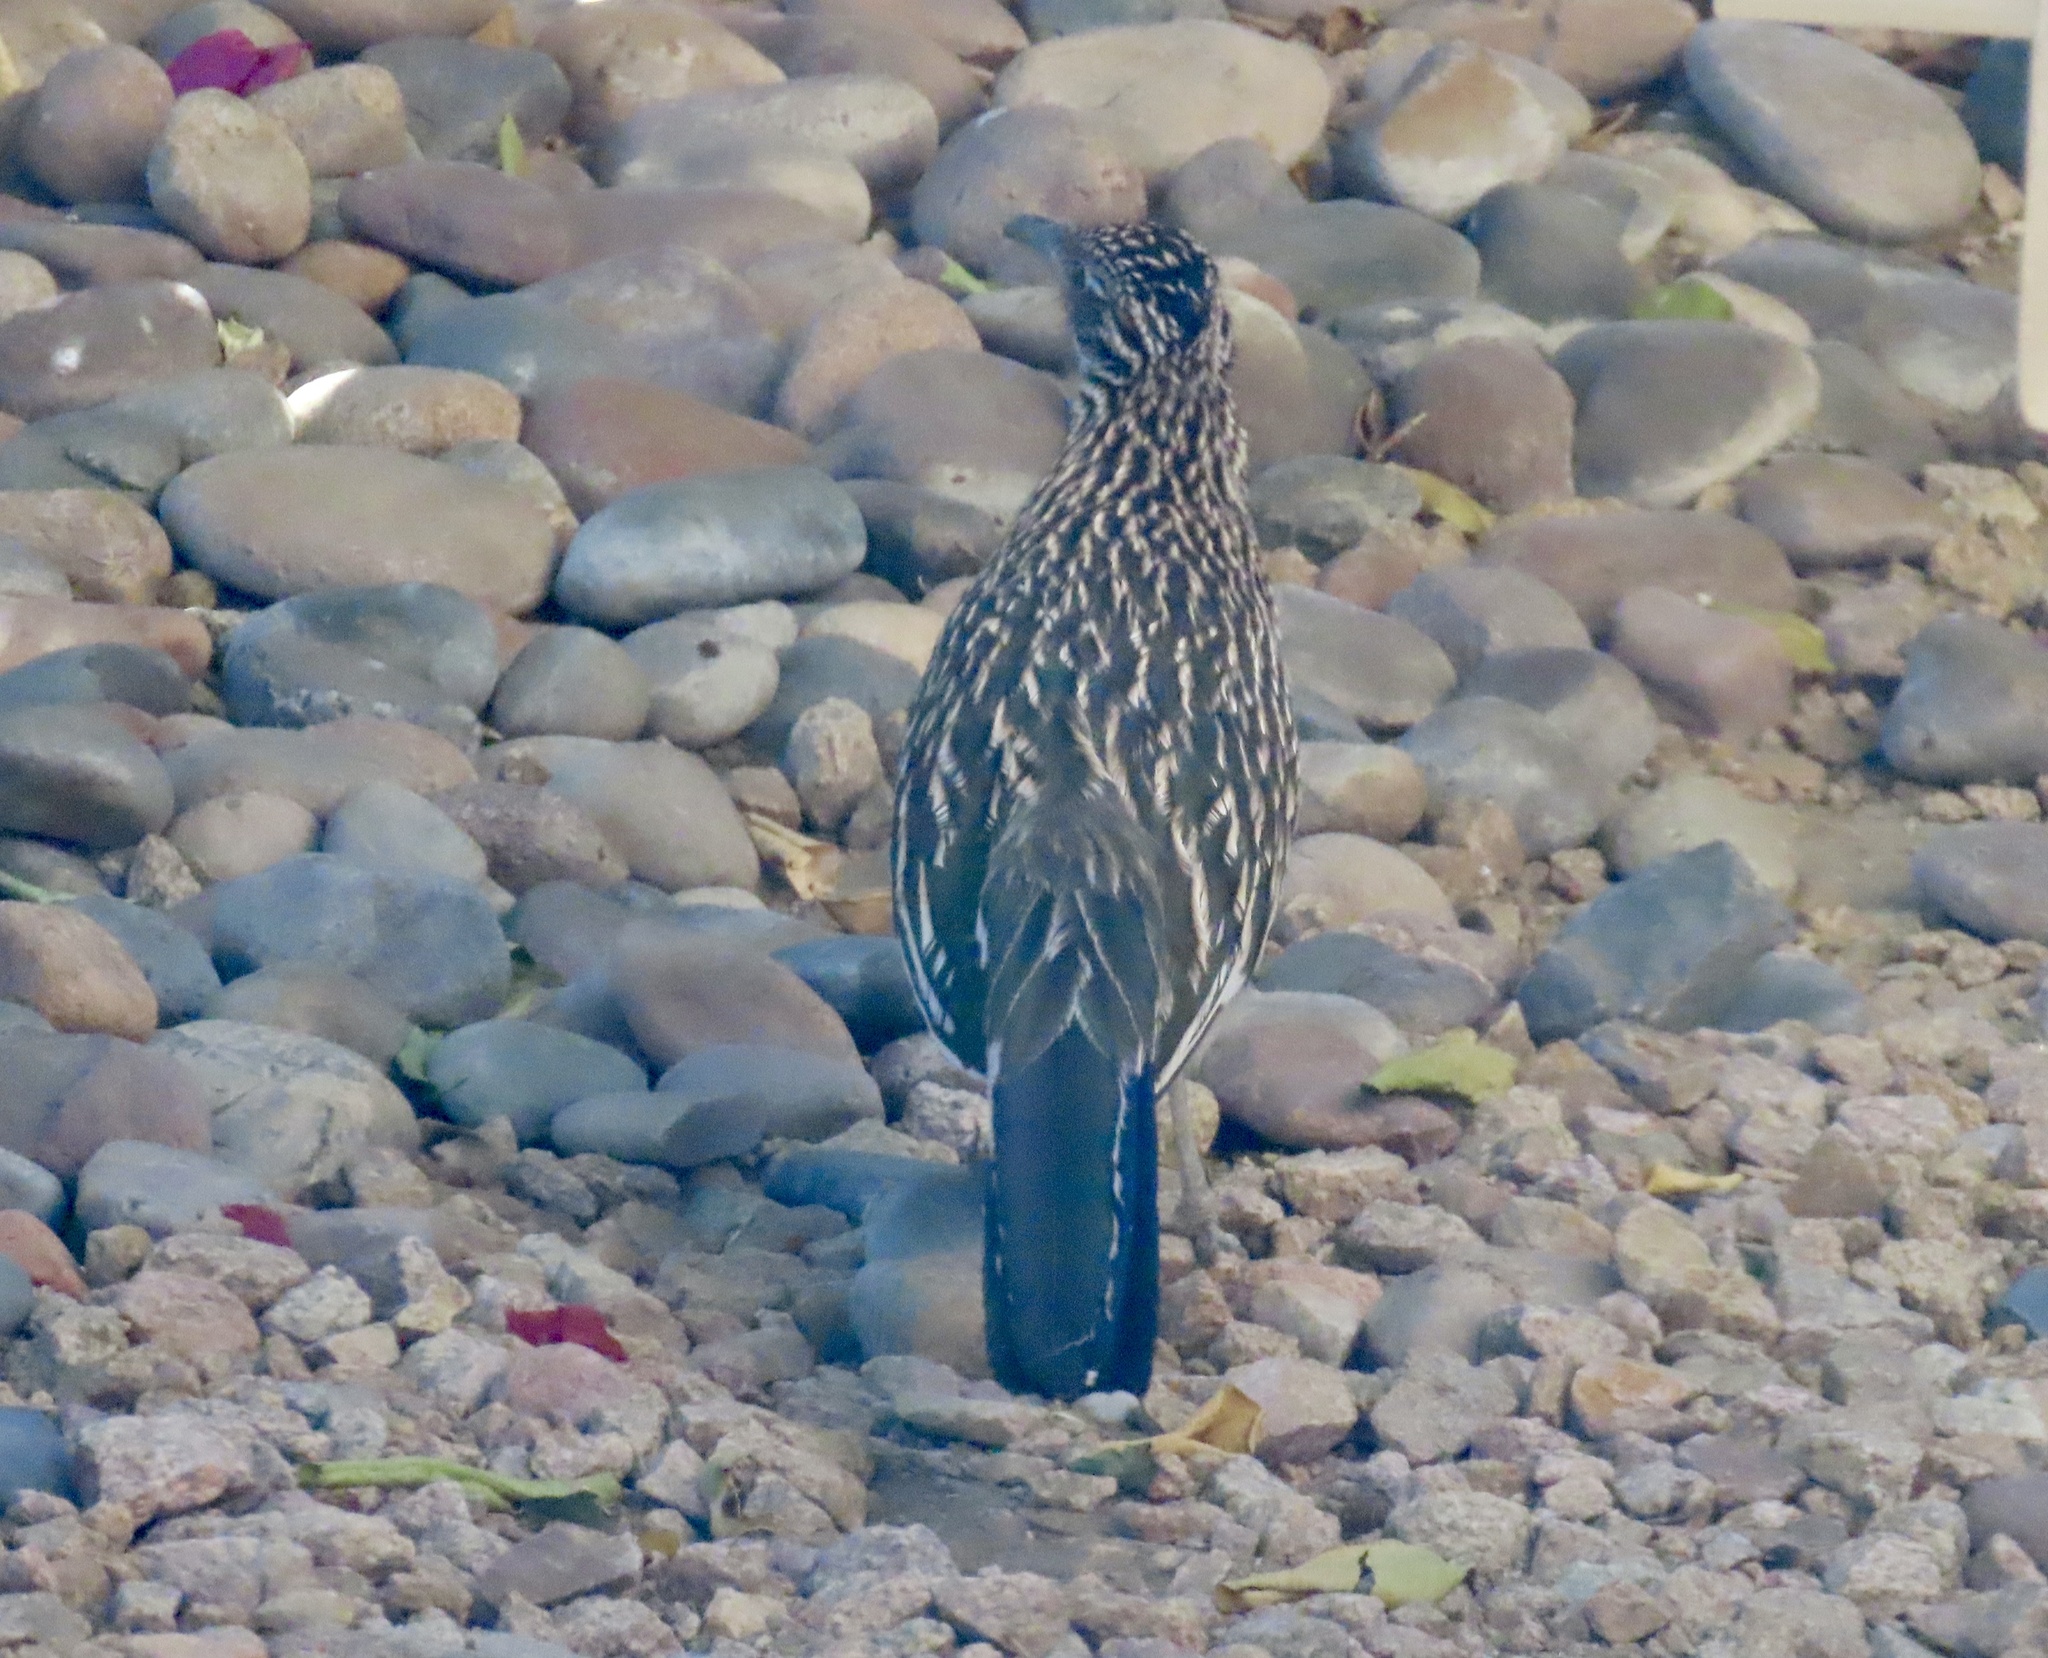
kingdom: Animalia
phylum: Chordata
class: Aves
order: Cuculiformes
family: Cuculidae
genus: Geococcyx
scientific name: Geococcyx californianus
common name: Greater roadrunner
